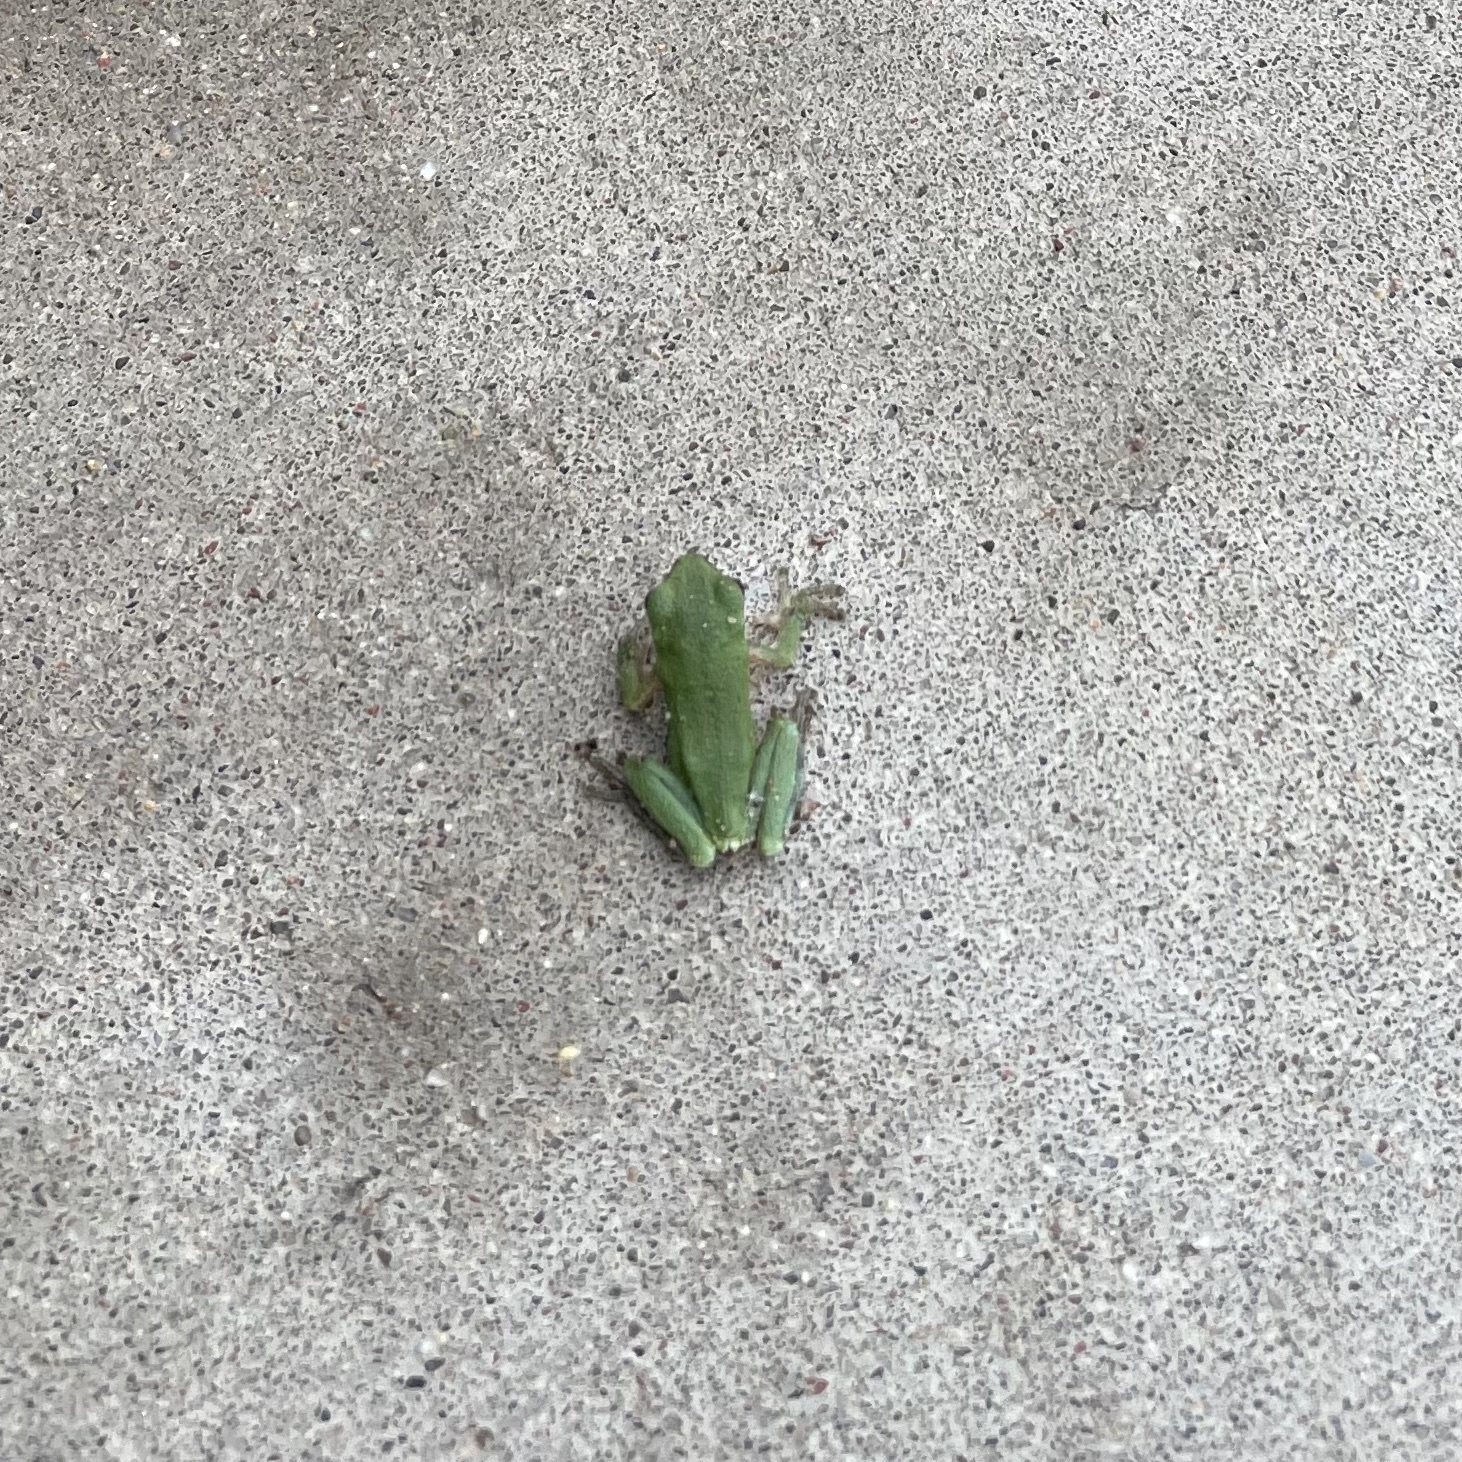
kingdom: Animalia
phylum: Chordata
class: Amphibia
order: Anura
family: Hylidae
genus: Hyla
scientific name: Hyla
